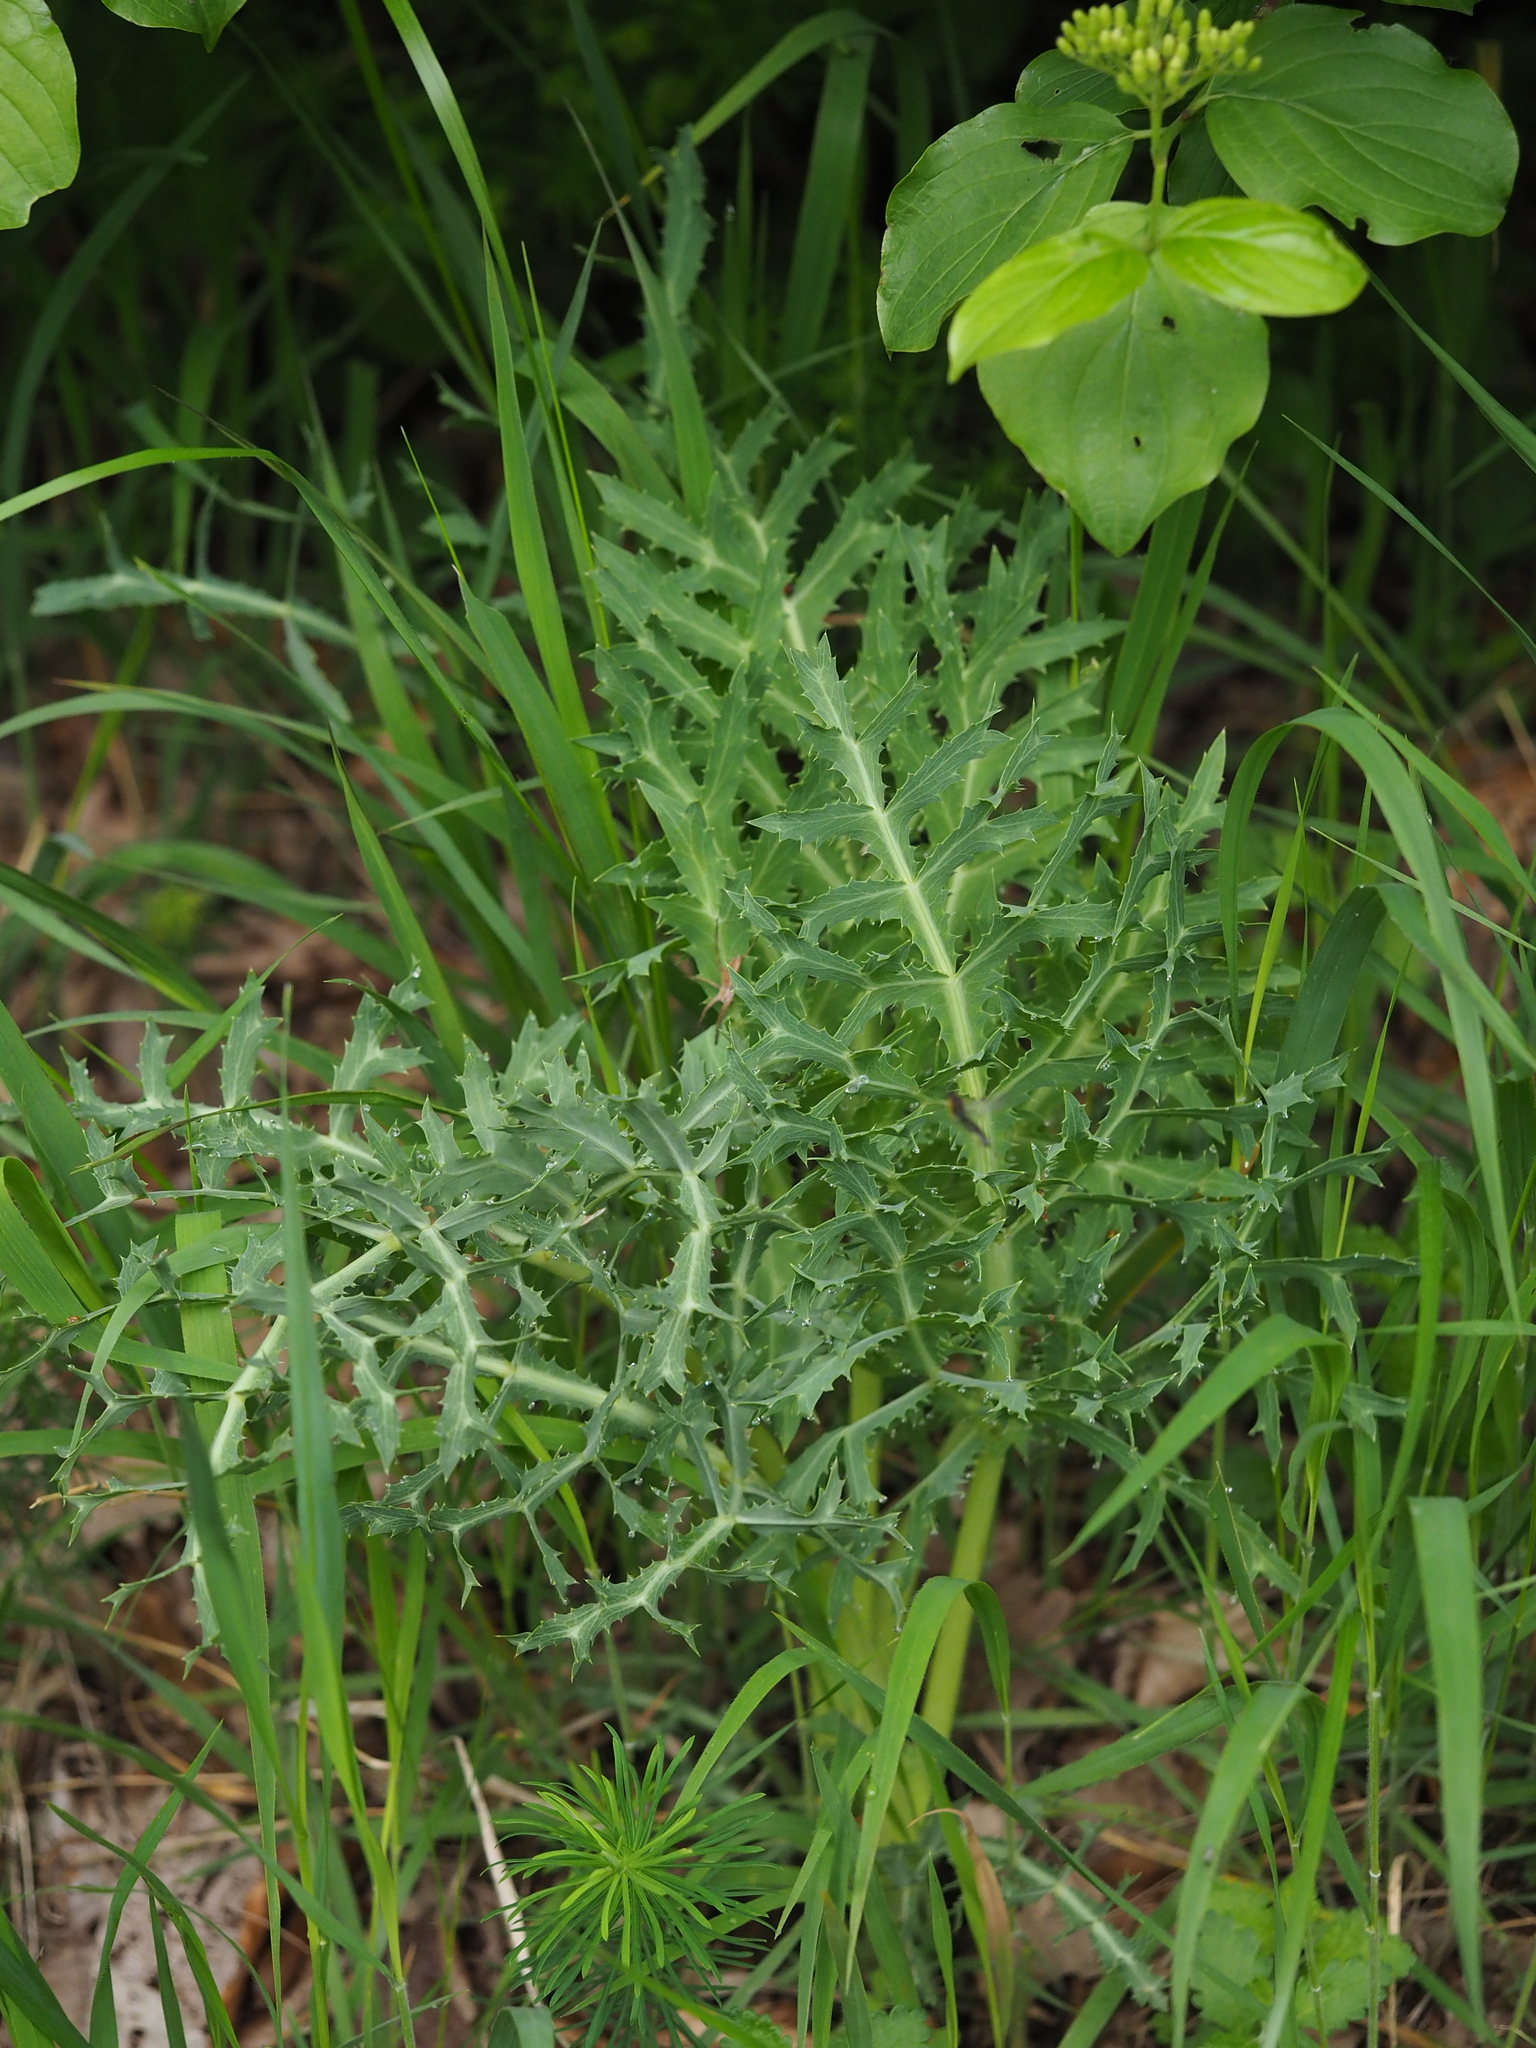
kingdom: Plantae
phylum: Tracheophyta
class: Magnoliopsida
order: Apiales
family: Apiaceae
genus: Eryngium
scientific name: Eryngium campestre
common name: Field eryngo
